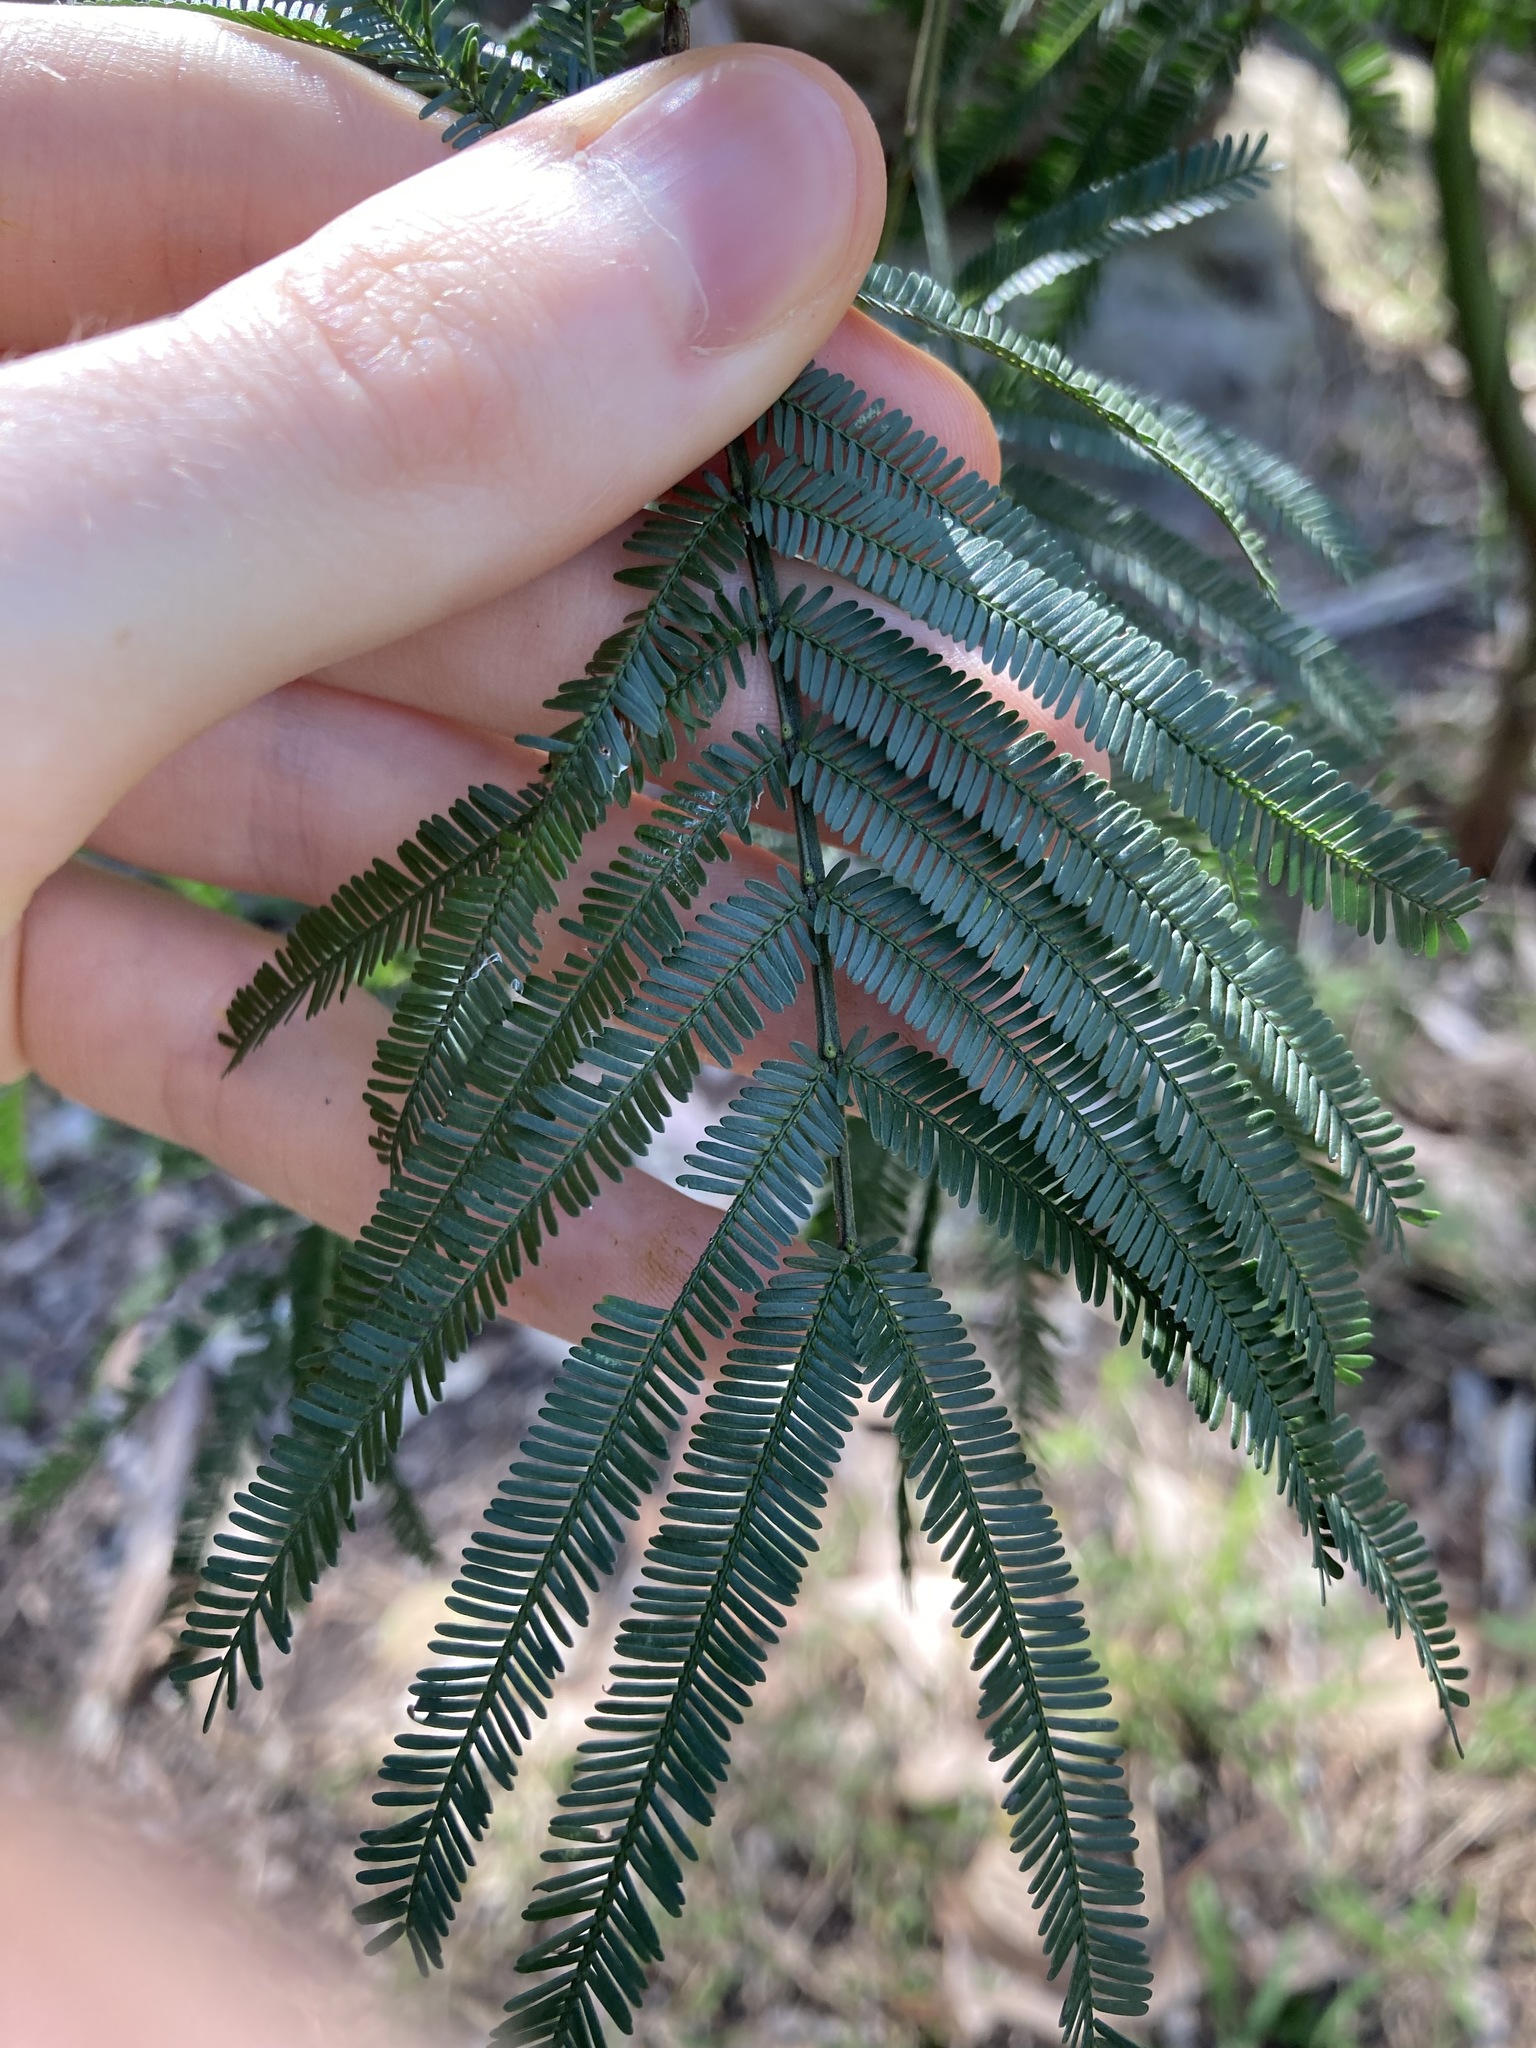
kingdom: Plantae
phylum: Tracheophyta
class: Magnoliopsida
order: Fabales
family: Fabaceae
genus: Acacia
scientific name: Acacia parramattensis
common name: Sydney green wattle
